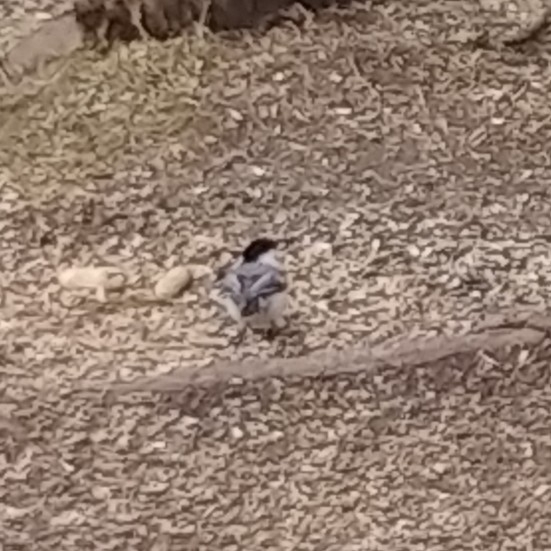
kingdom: Animalia
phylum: Chordata
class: Aves
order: Passeriformes
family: Paridae
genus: Poecile
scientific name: Poecile atricapillus
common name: Black-capped chickadee
